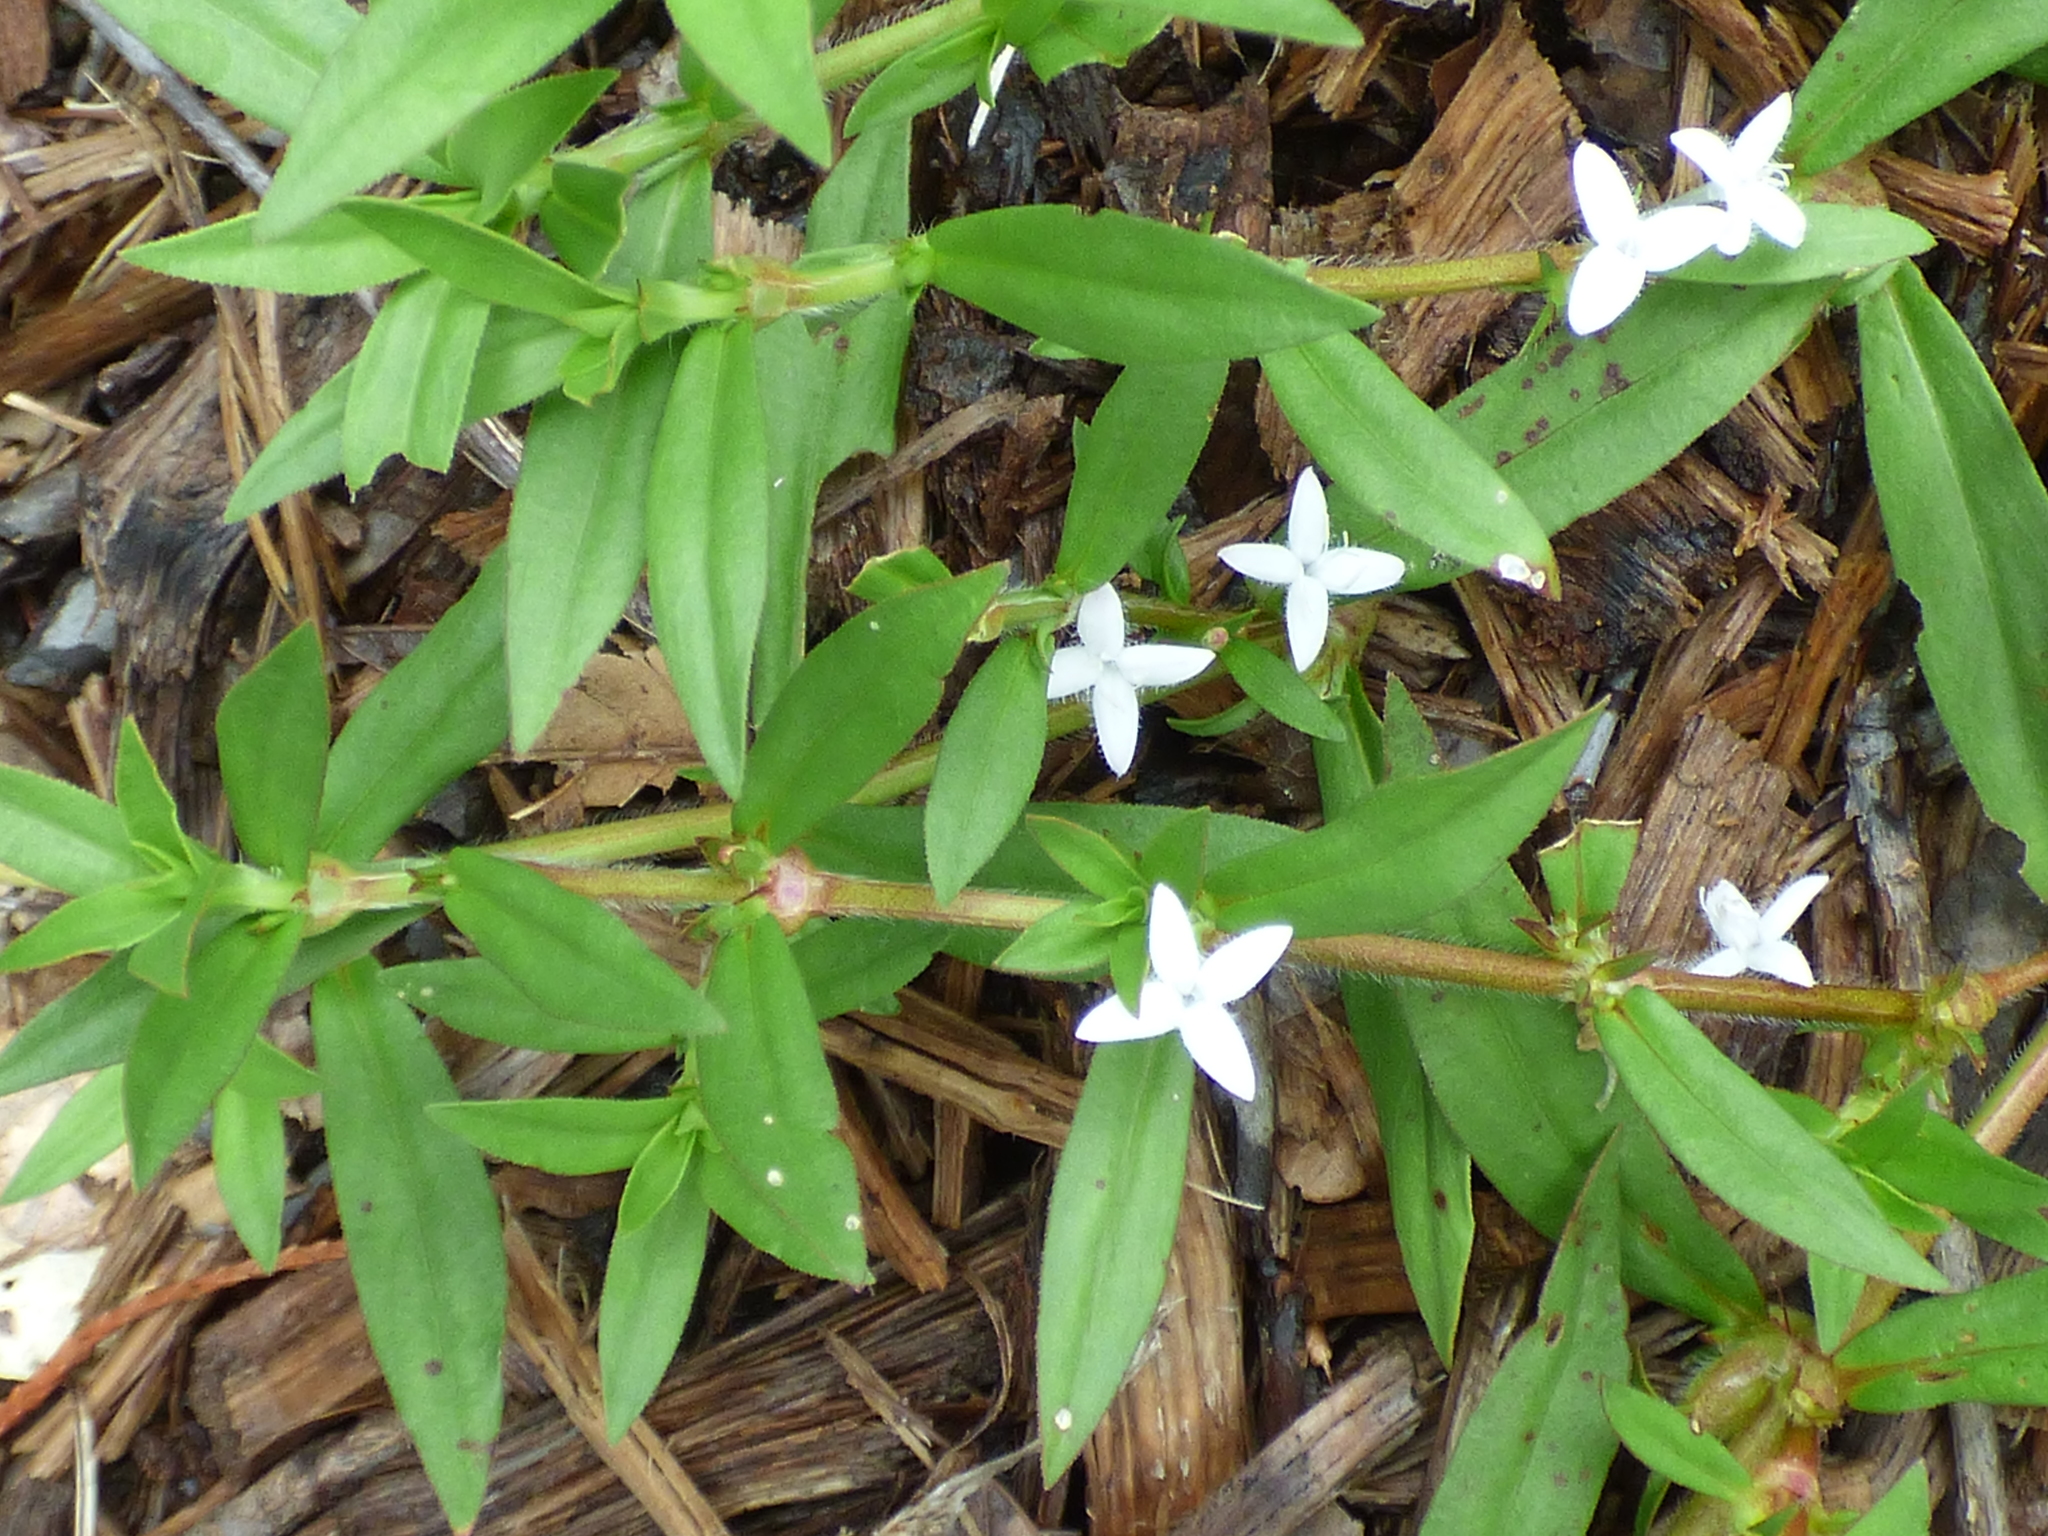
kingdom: Plantae
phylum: Tracheophyta
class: Magnoliopsida
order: Gentianales
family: Rubiaceae
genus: Diodia
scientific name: Diodia virginiana
